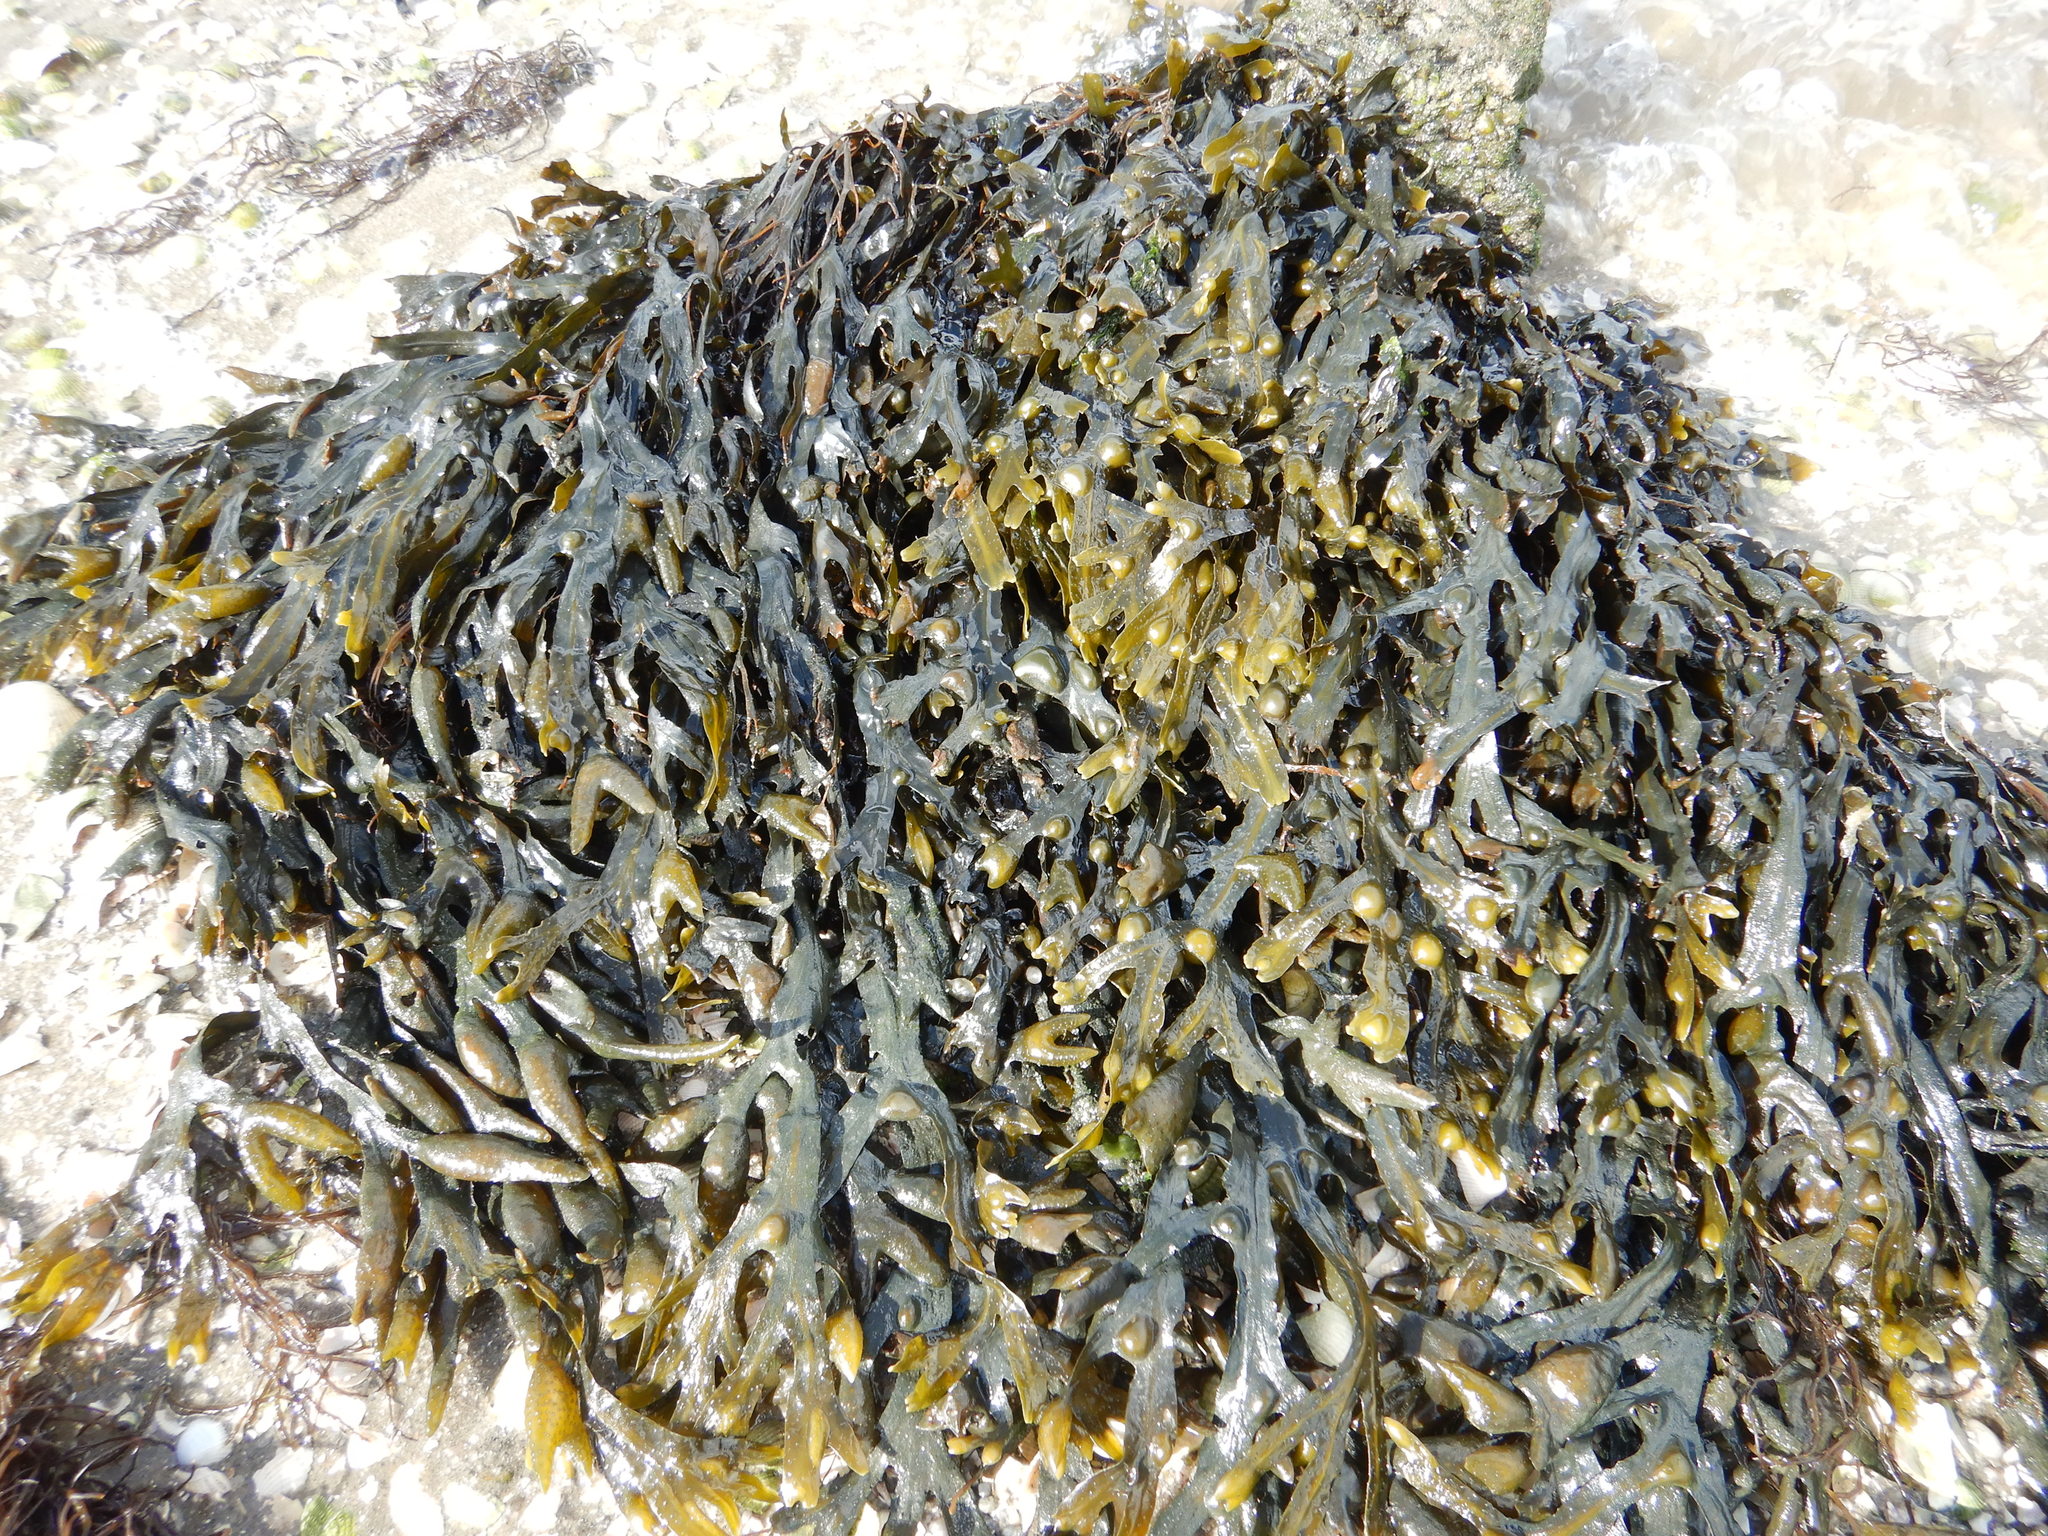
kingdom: Chromista
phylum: Ochrophyta
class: Phaeophyceae
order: Fucales
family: Fucaceae
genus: Fucus
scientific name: Fucus vesiculosus
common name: Bladder wrack
